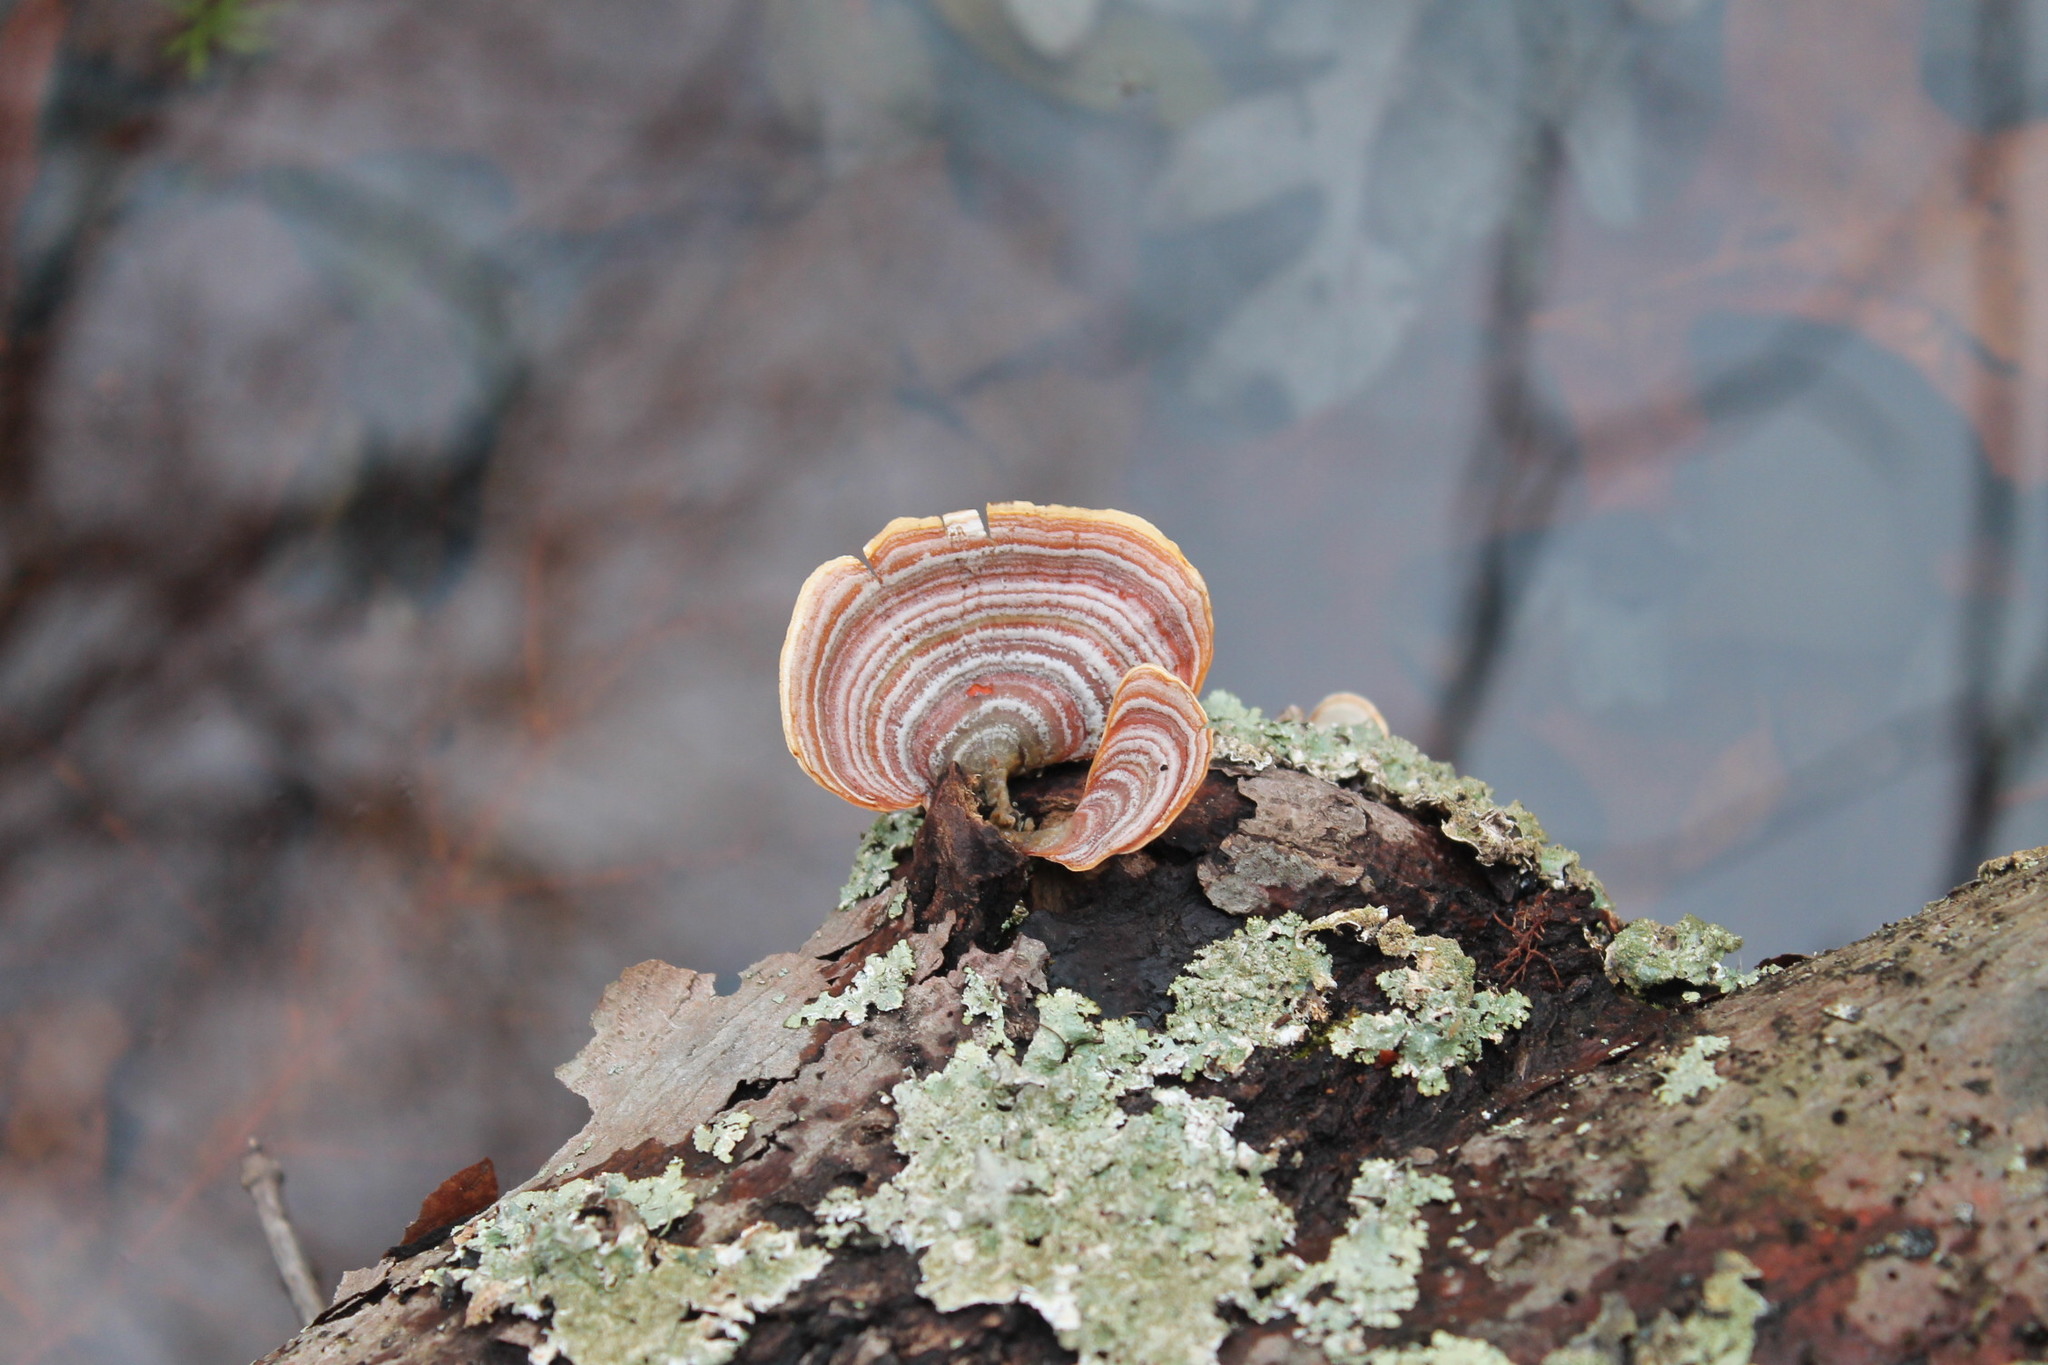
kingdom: Fungi
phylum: Basidiomycota
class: Agaricomycetes
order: Russulales
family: Stereaceae
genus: Stereum
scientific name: Stereum lobatum
